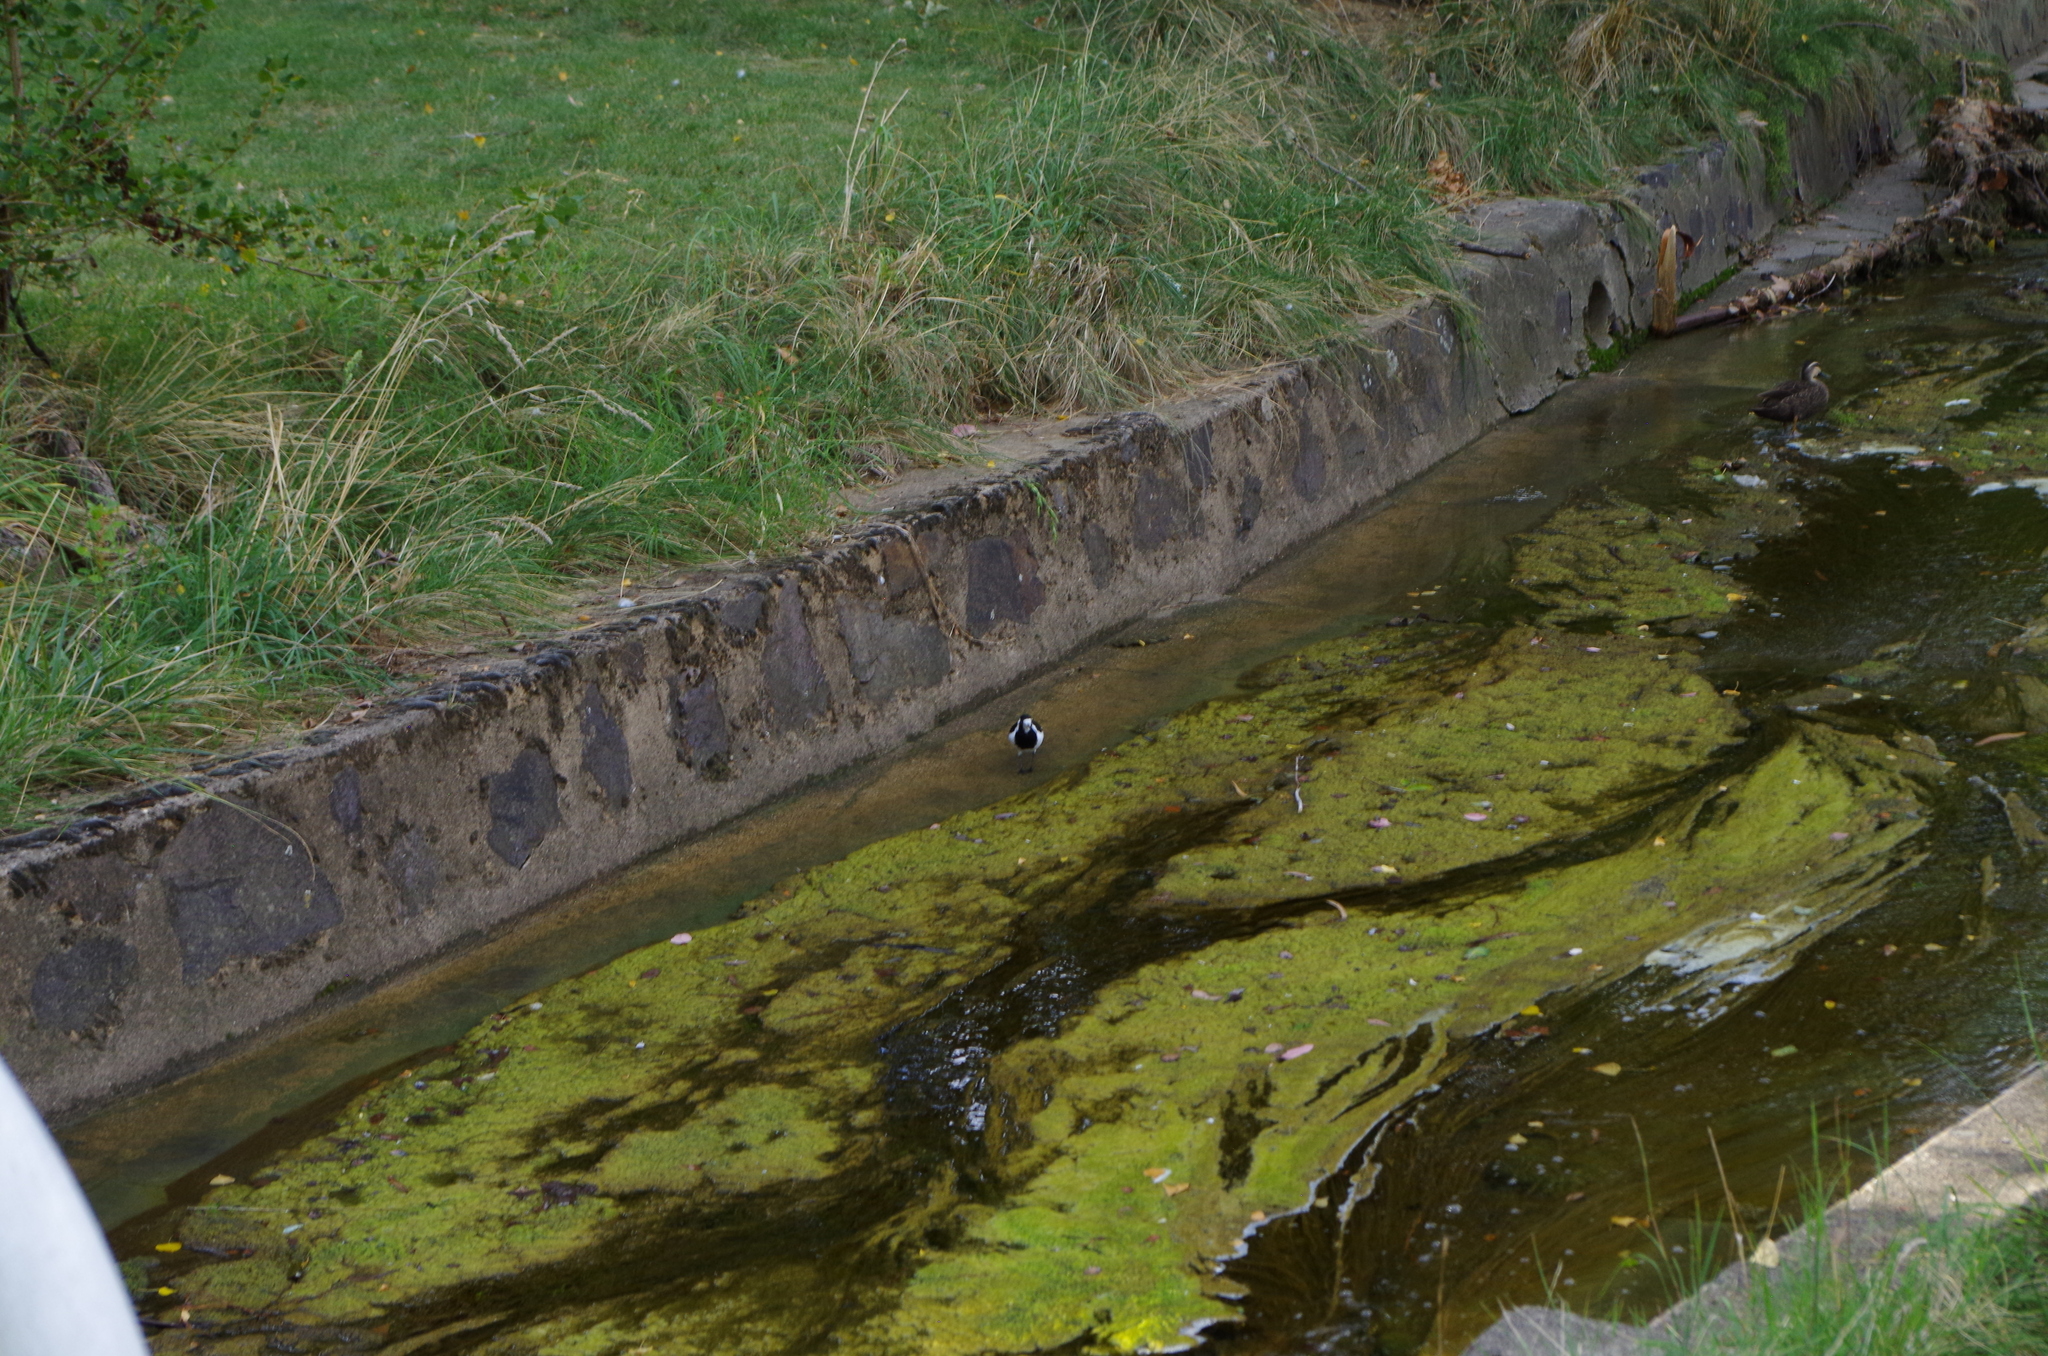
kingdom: Animalia
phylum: Chordata
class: Aves
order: Passeriformes
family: Monarchidae
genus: Grallina
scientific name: Grallina cyanoleuca
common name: Magpie-lark
